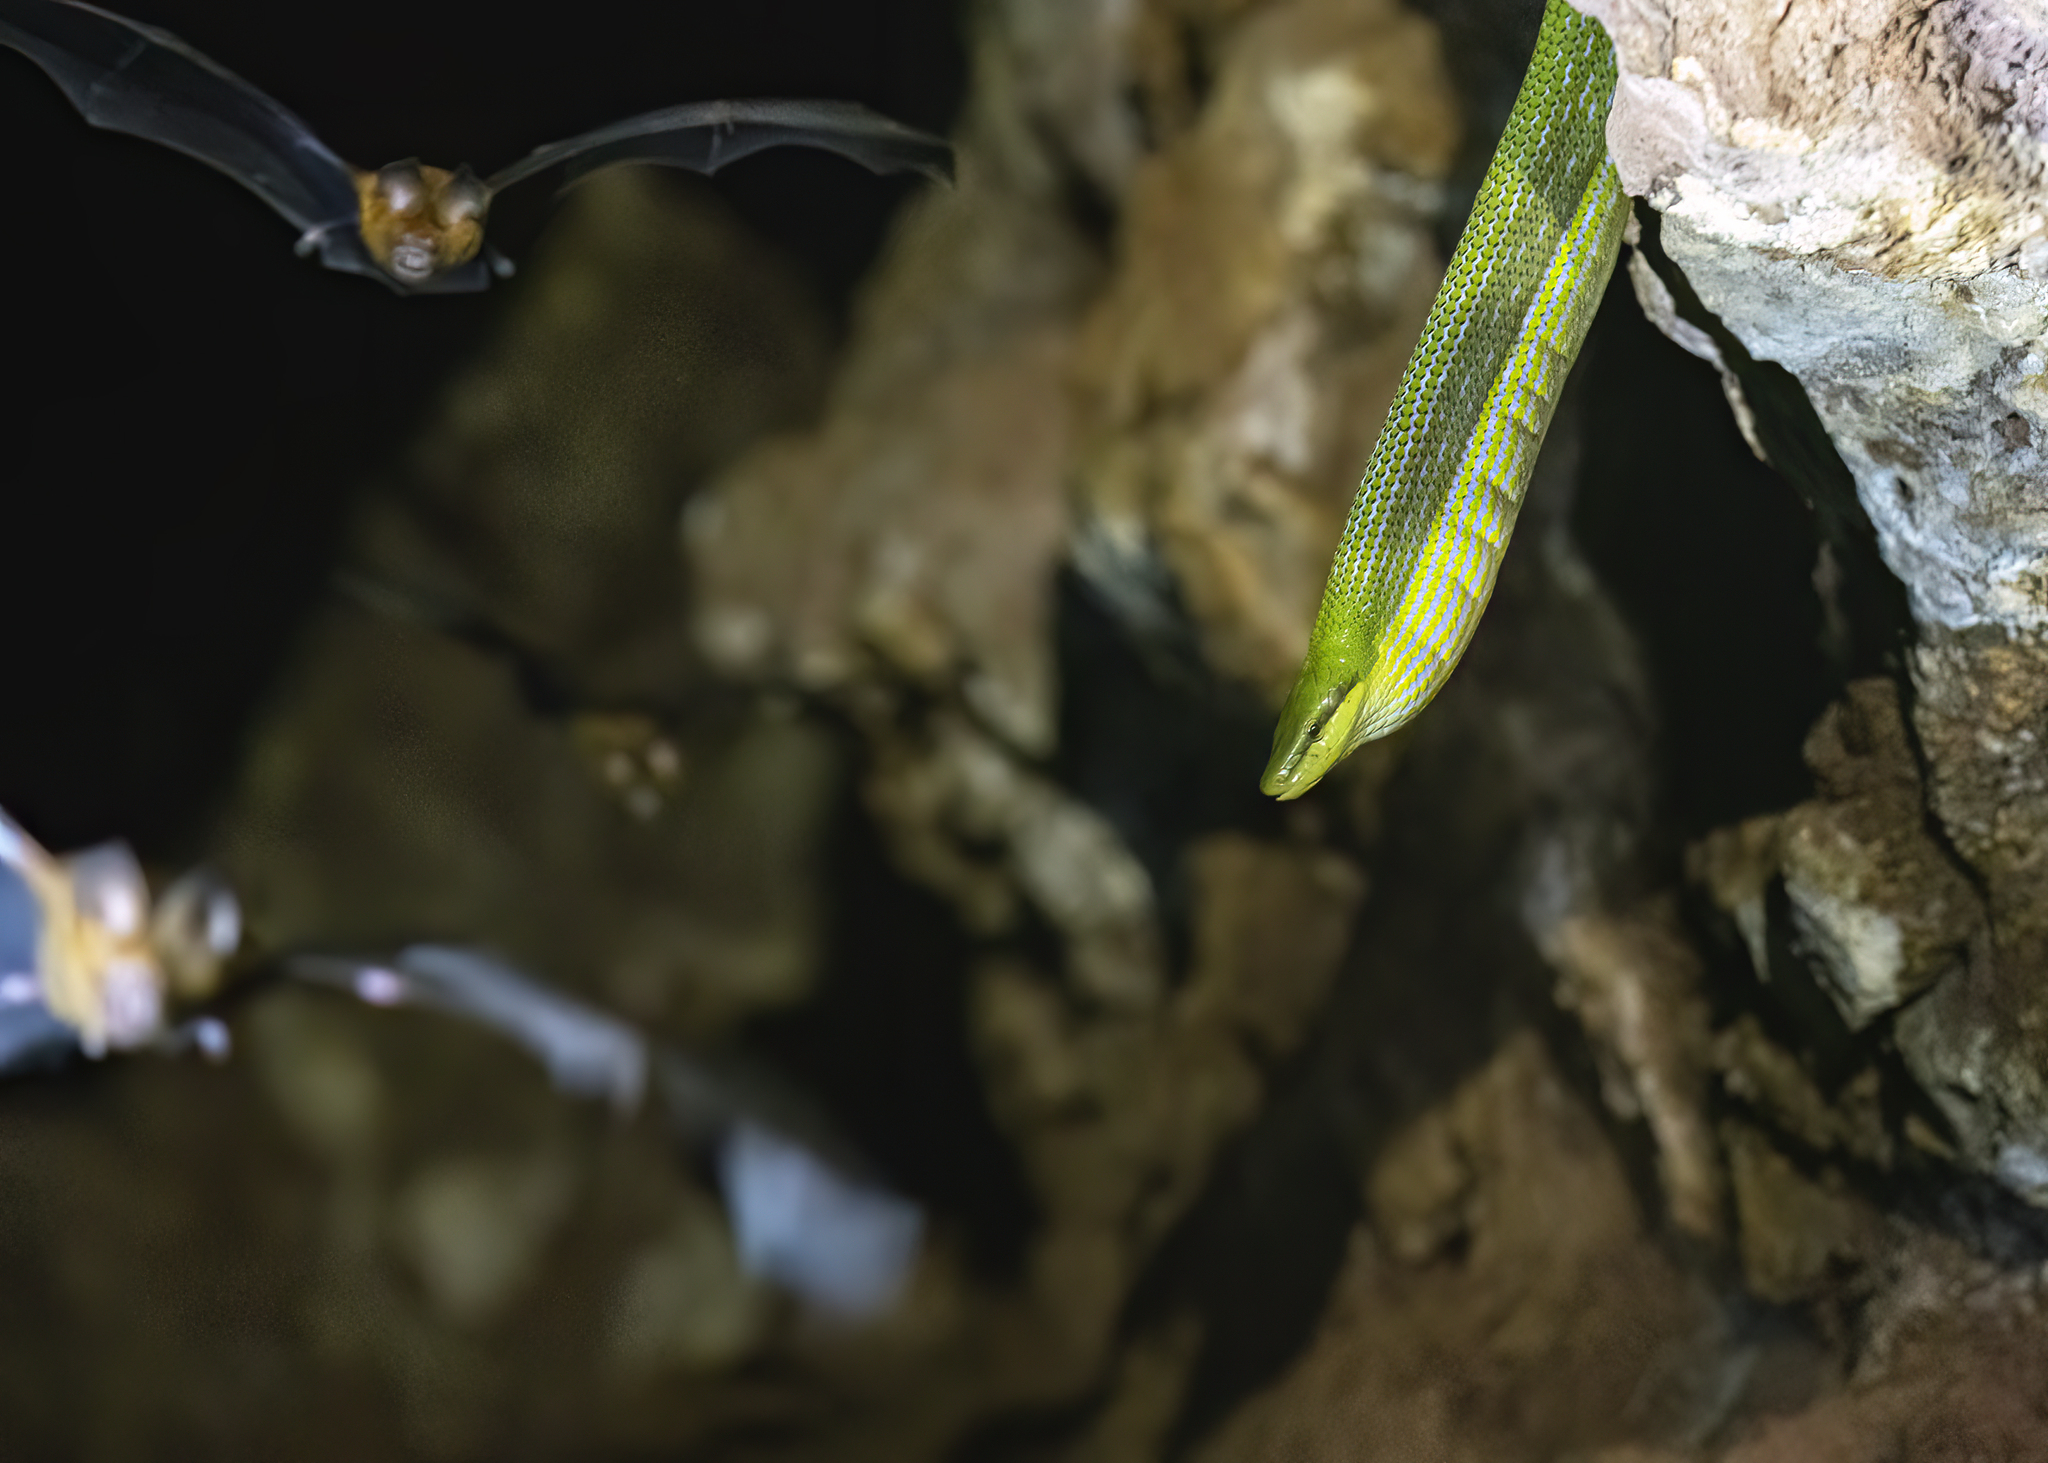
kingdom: Animalia
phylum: Chordata
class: Squamata
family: Colubridae
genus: Gonyosoma
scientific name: Gonyosoma oxycephalum
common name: Red-tailed racer
